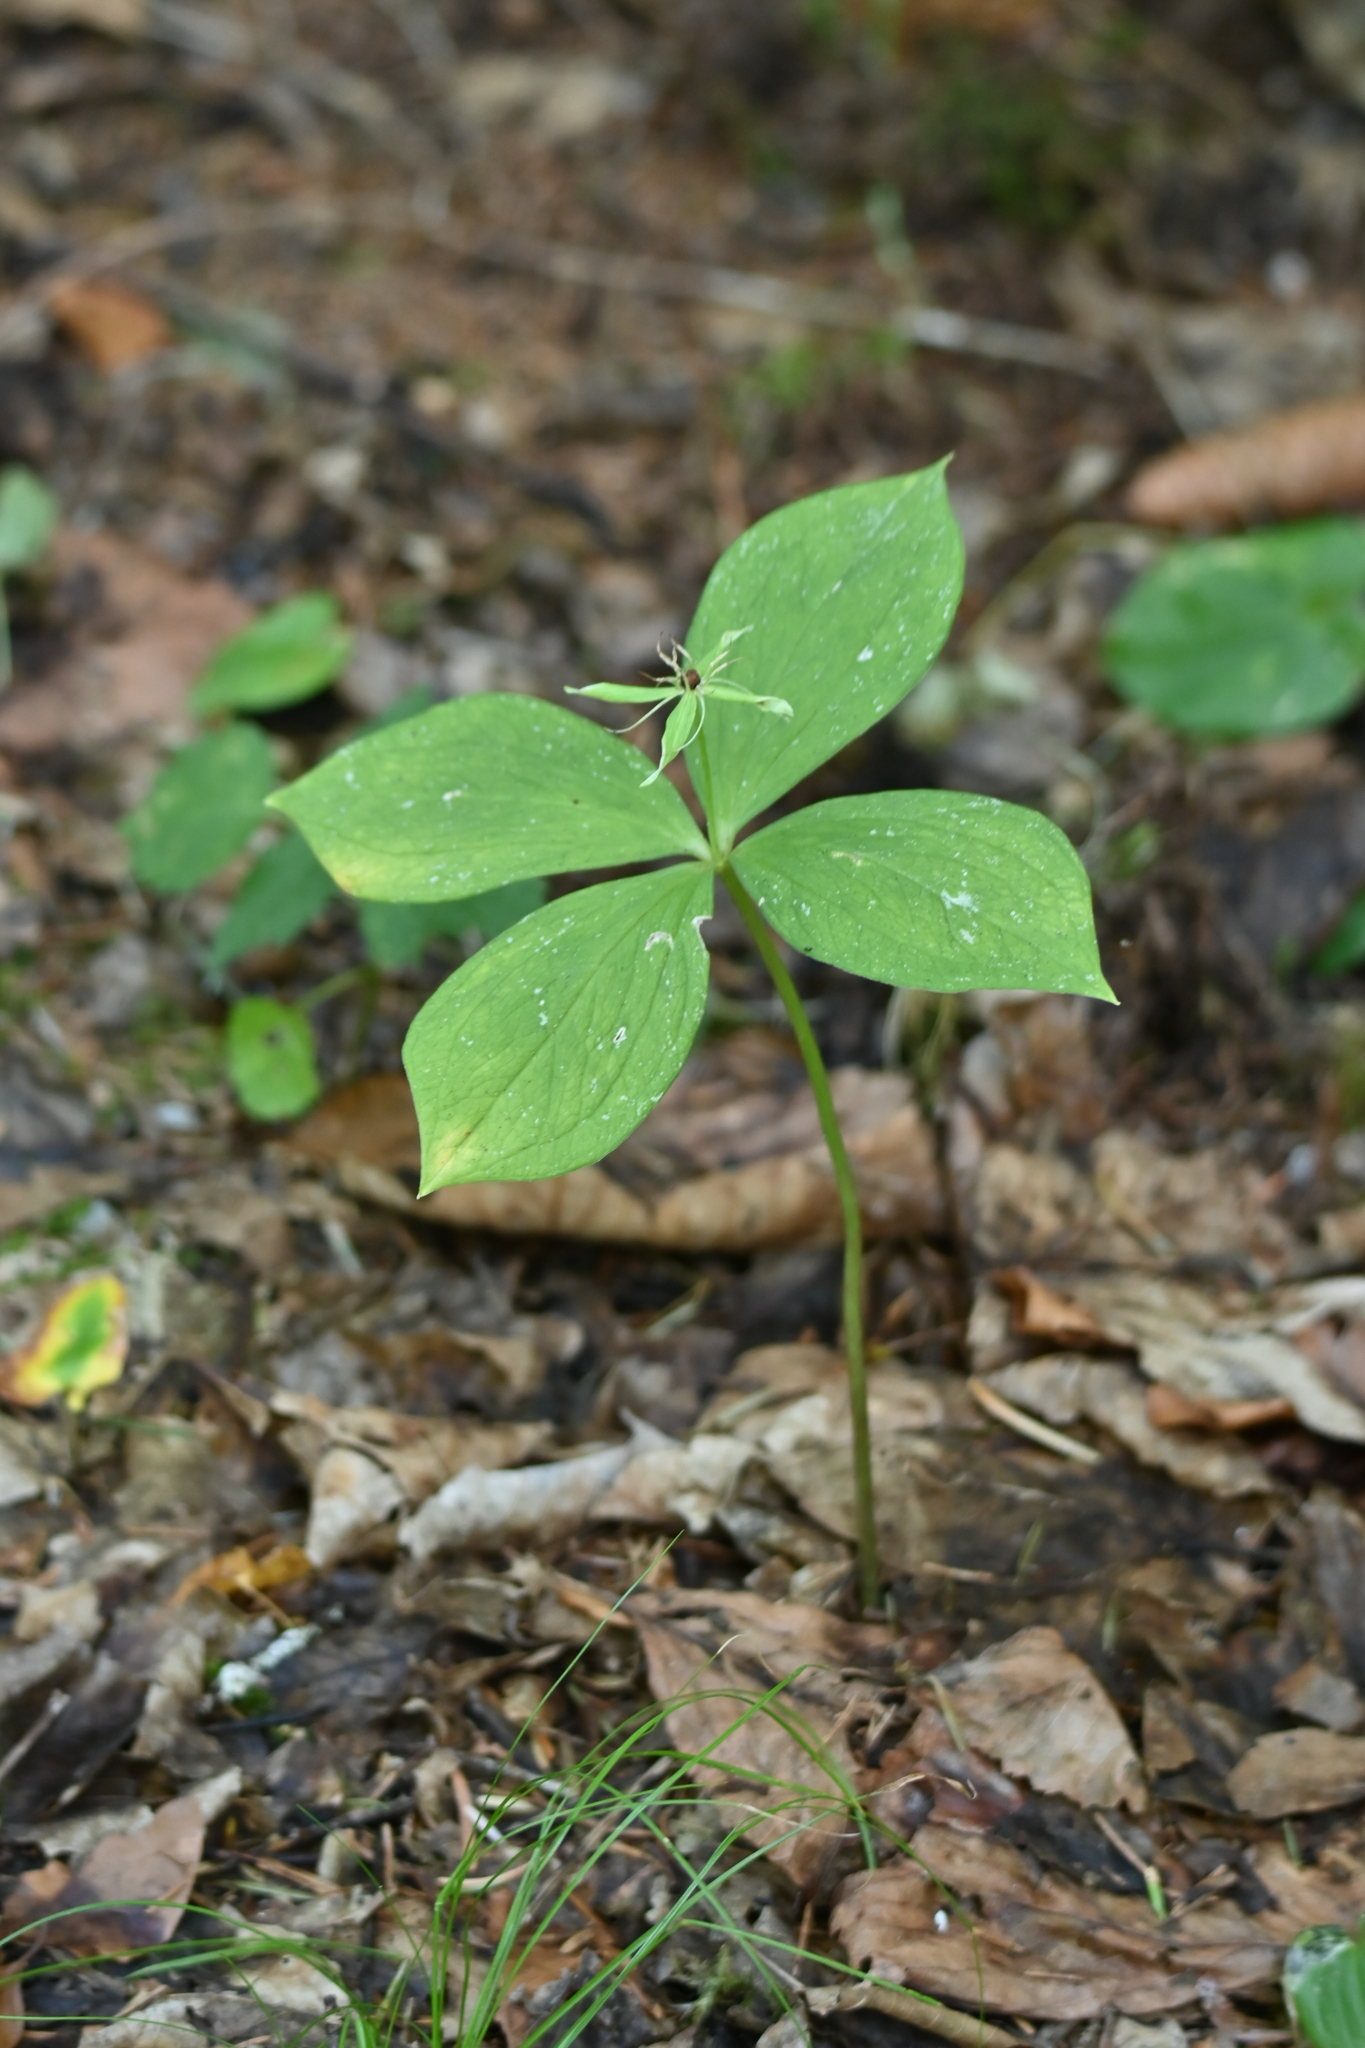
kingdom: Plantae
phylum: Tracheophyta
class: Liliopsida
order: Liliales
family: Melanthiaceae
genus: Paris
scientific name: Paris quadrifolia
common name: Herb-paris
